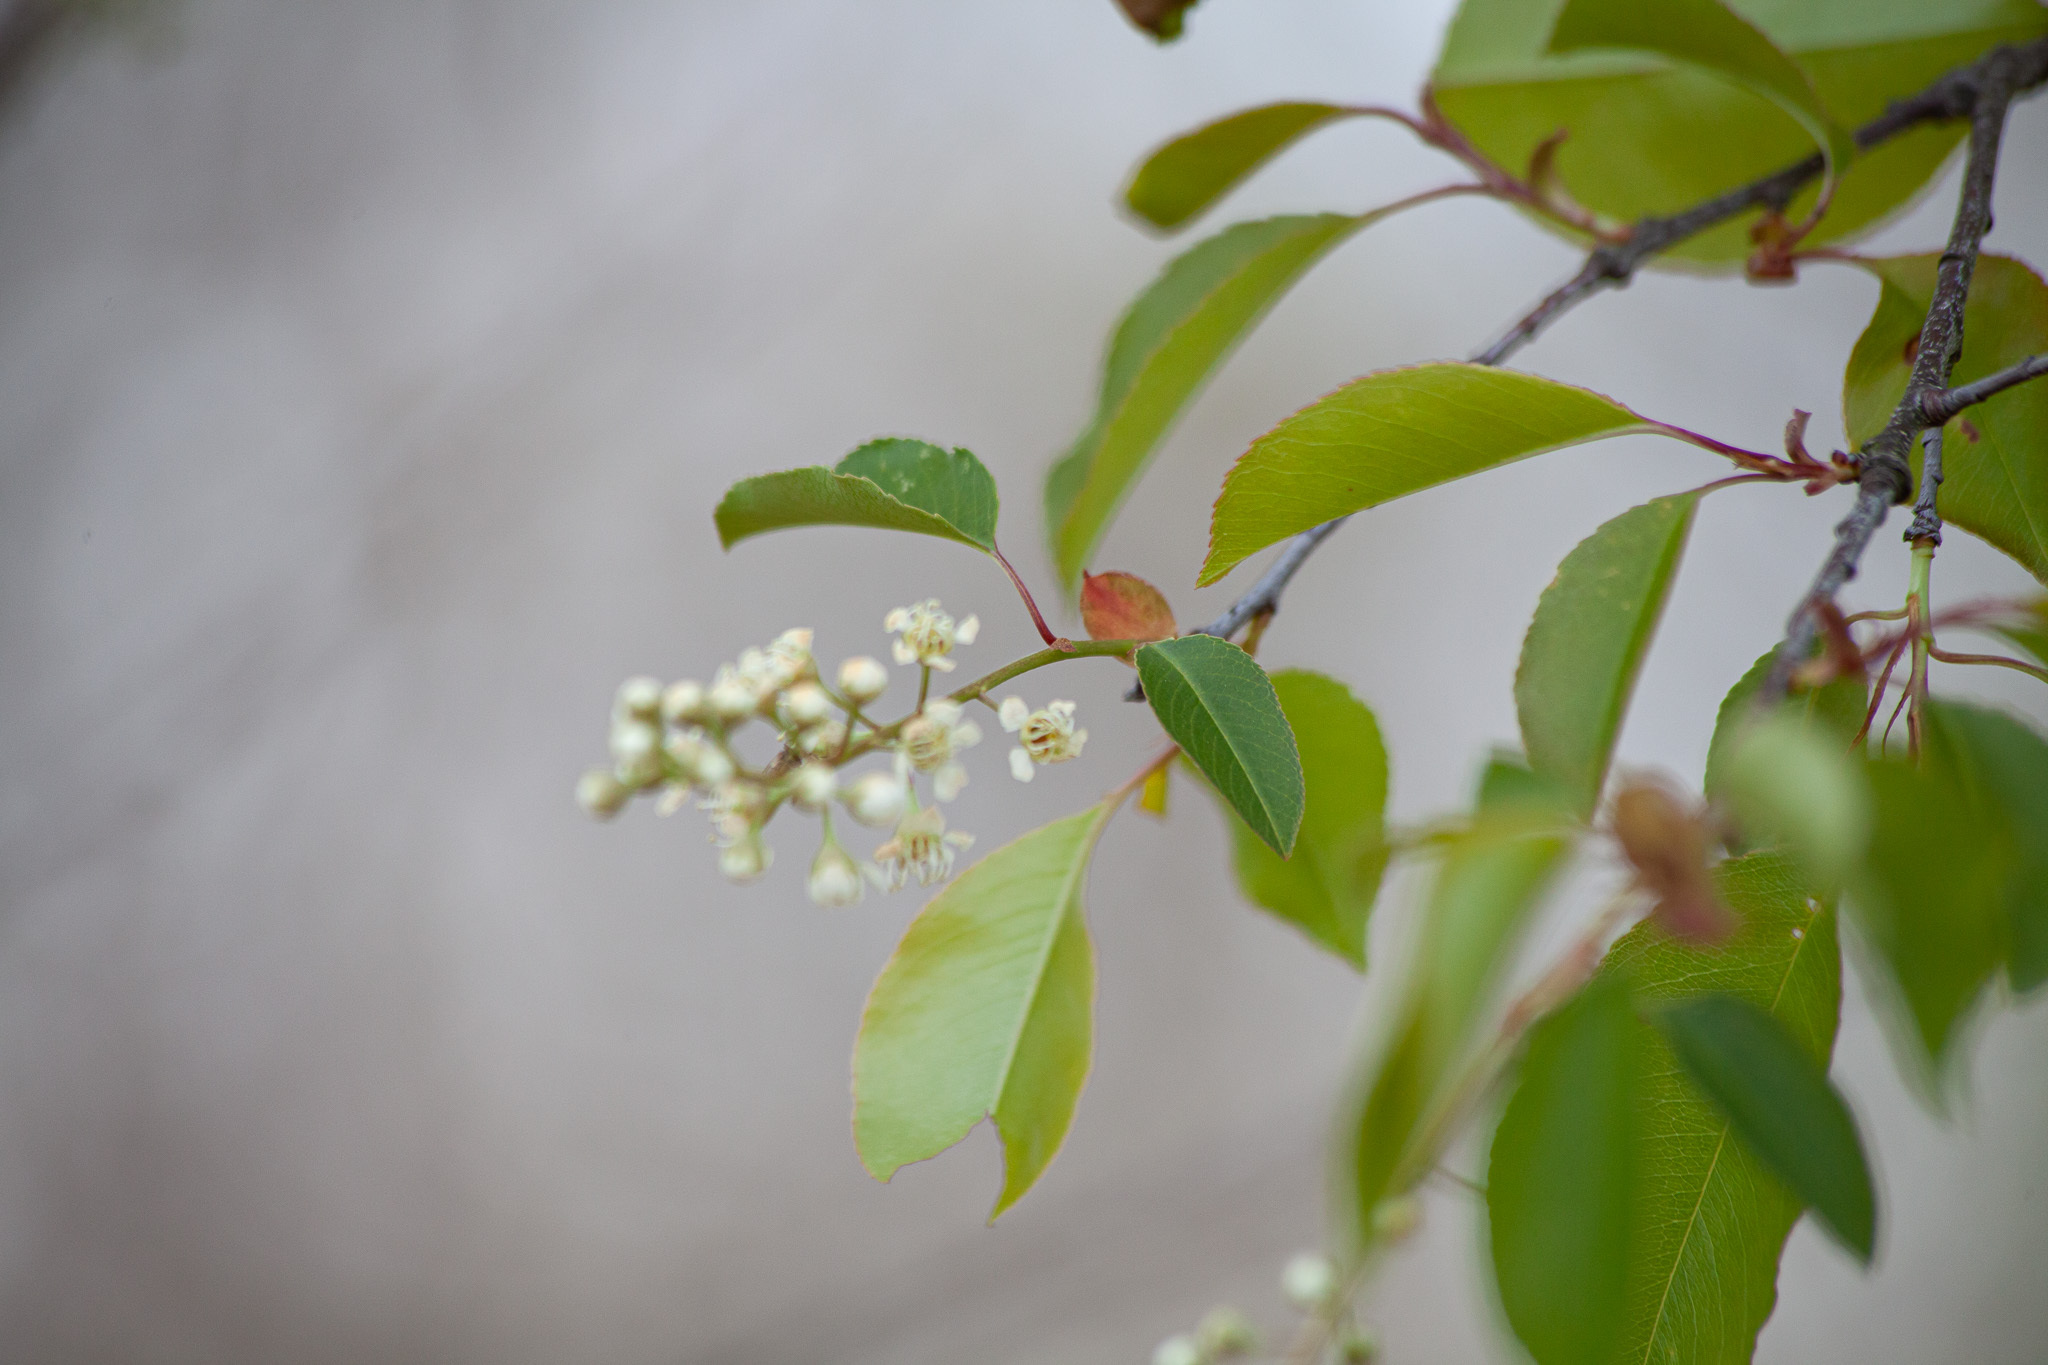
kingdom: Plantae
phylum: Tracheophyta
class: Magnoliopsida
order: Rosales
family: Rosaceae
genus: Prunus
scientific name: Prunus serotina
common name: Black cherry
